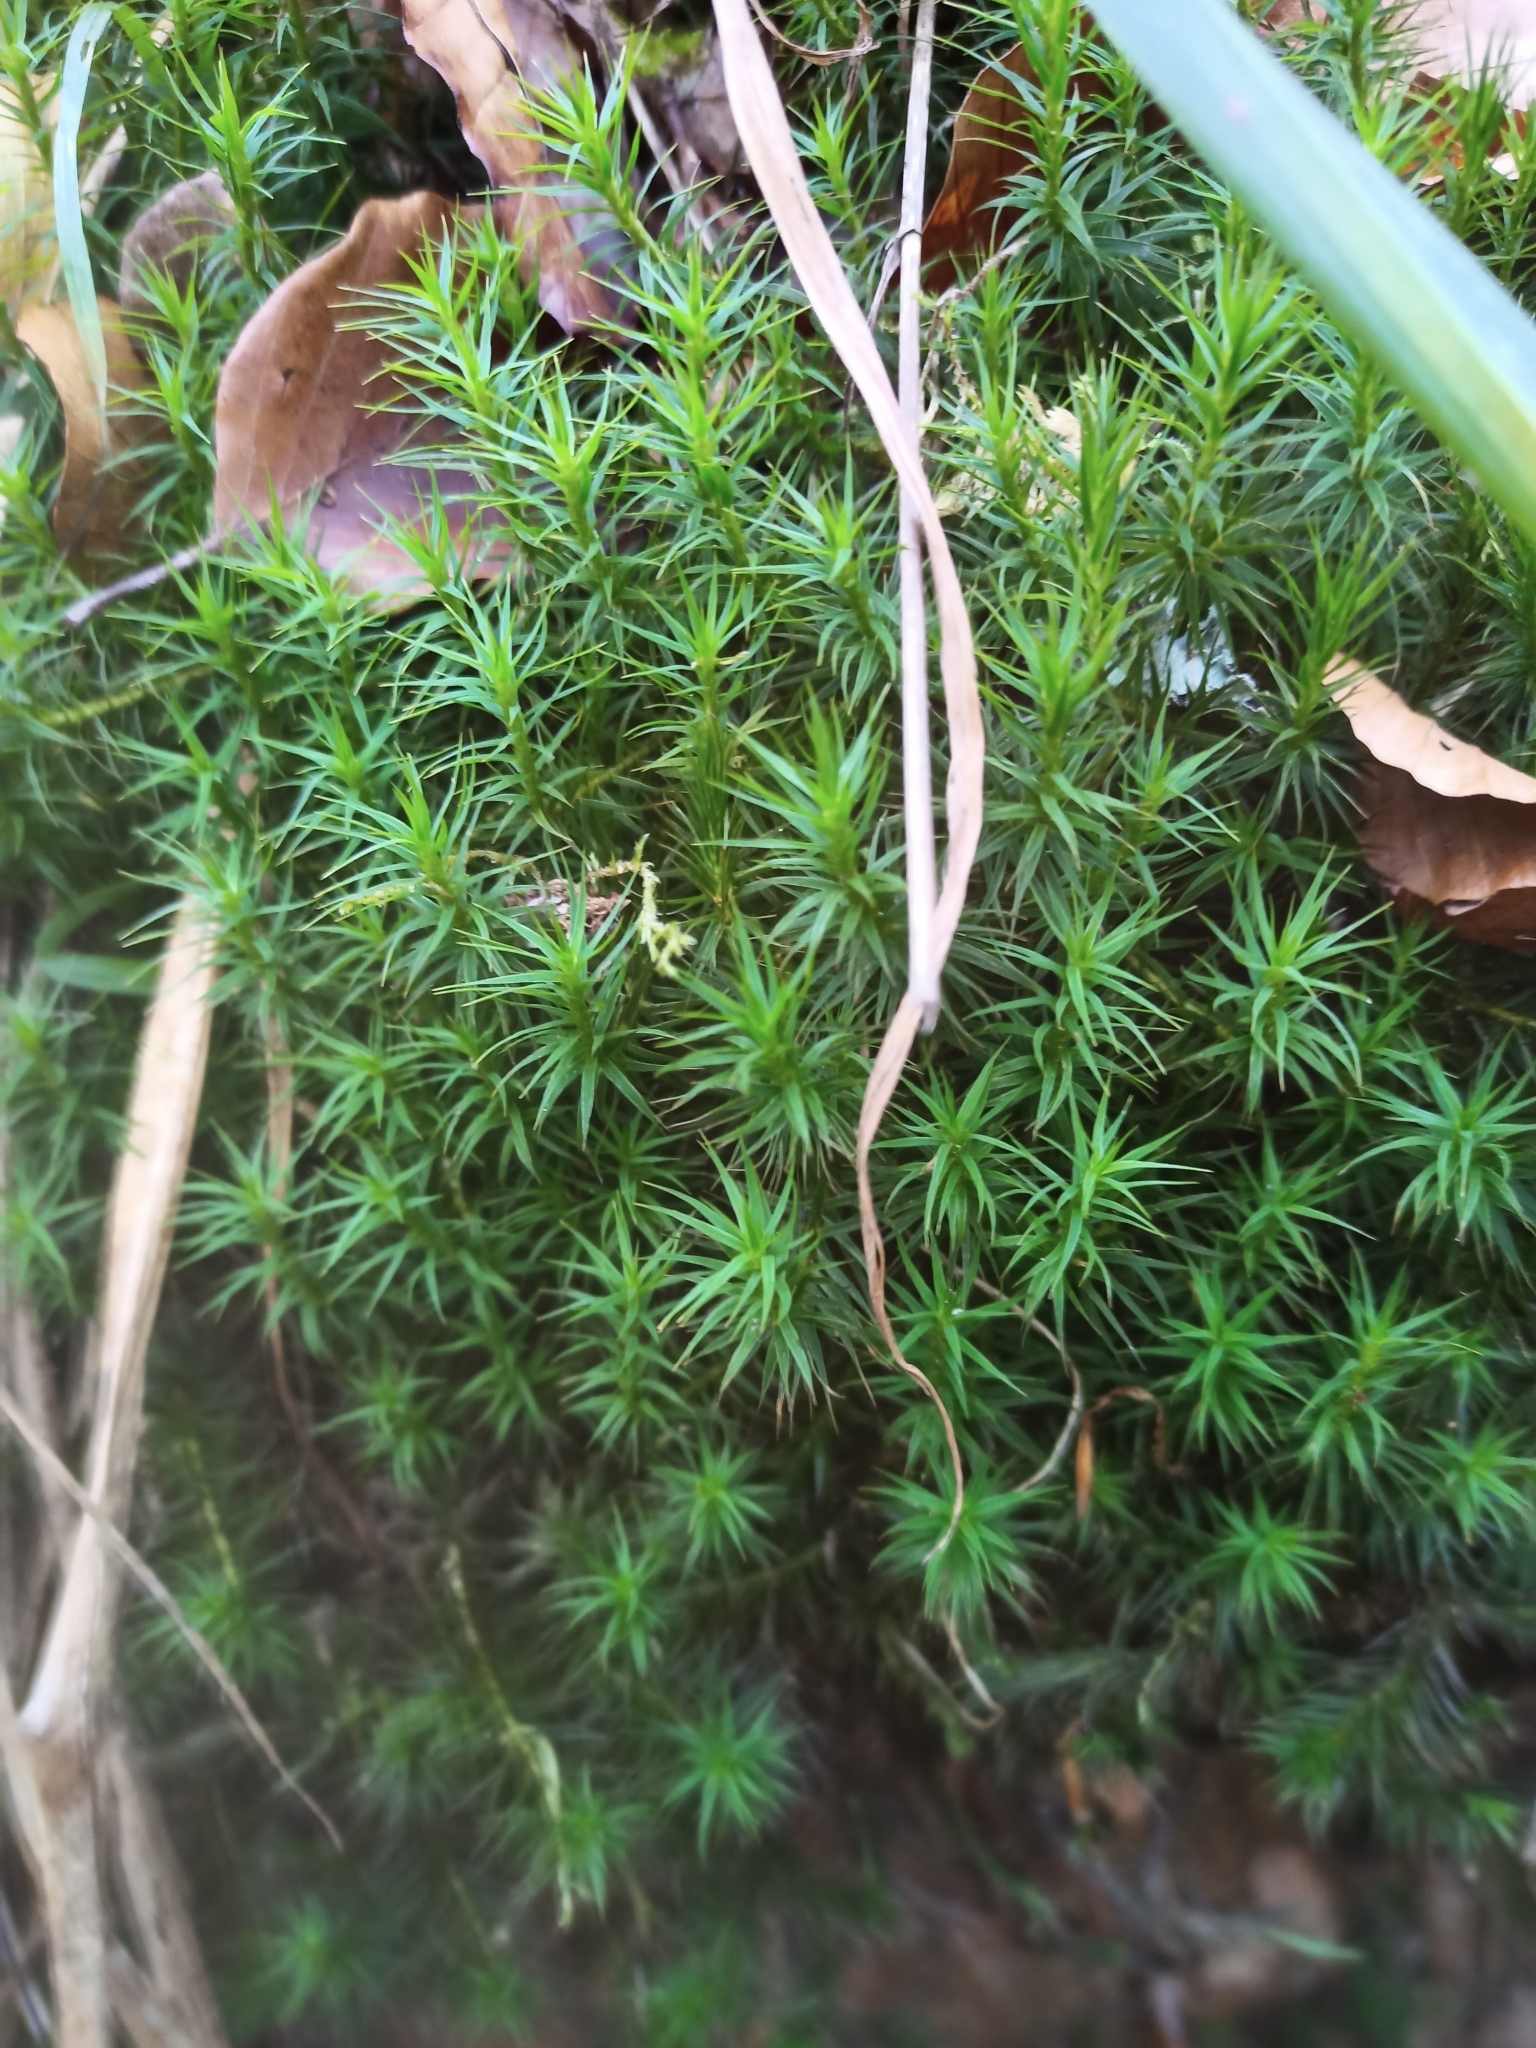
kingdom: Plantae
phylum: Bryophyta
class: Polytrichopsida
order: Polytrichales
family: Polytrichaceae
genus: Polytrichum
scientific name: Polytrichum formosum
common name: Bank haircap moss
